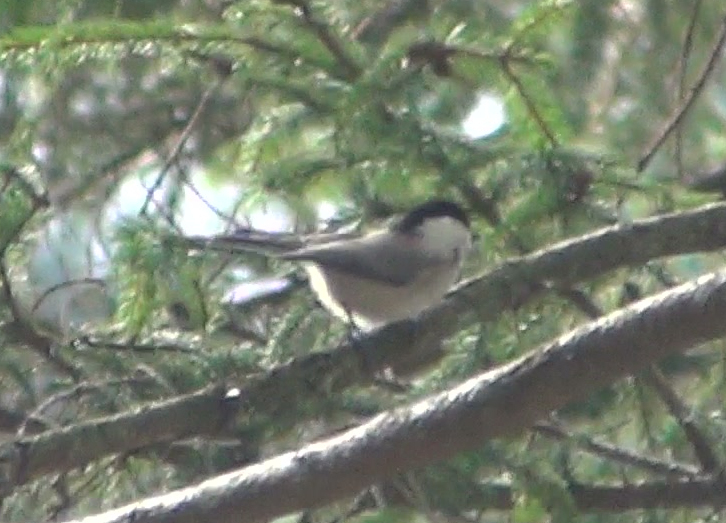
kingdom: Animalia
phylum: Chordata
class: Aves
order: Passeriformes
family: Paridae
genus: Poecile
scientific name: Poecile palustris
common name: Marsh tit
